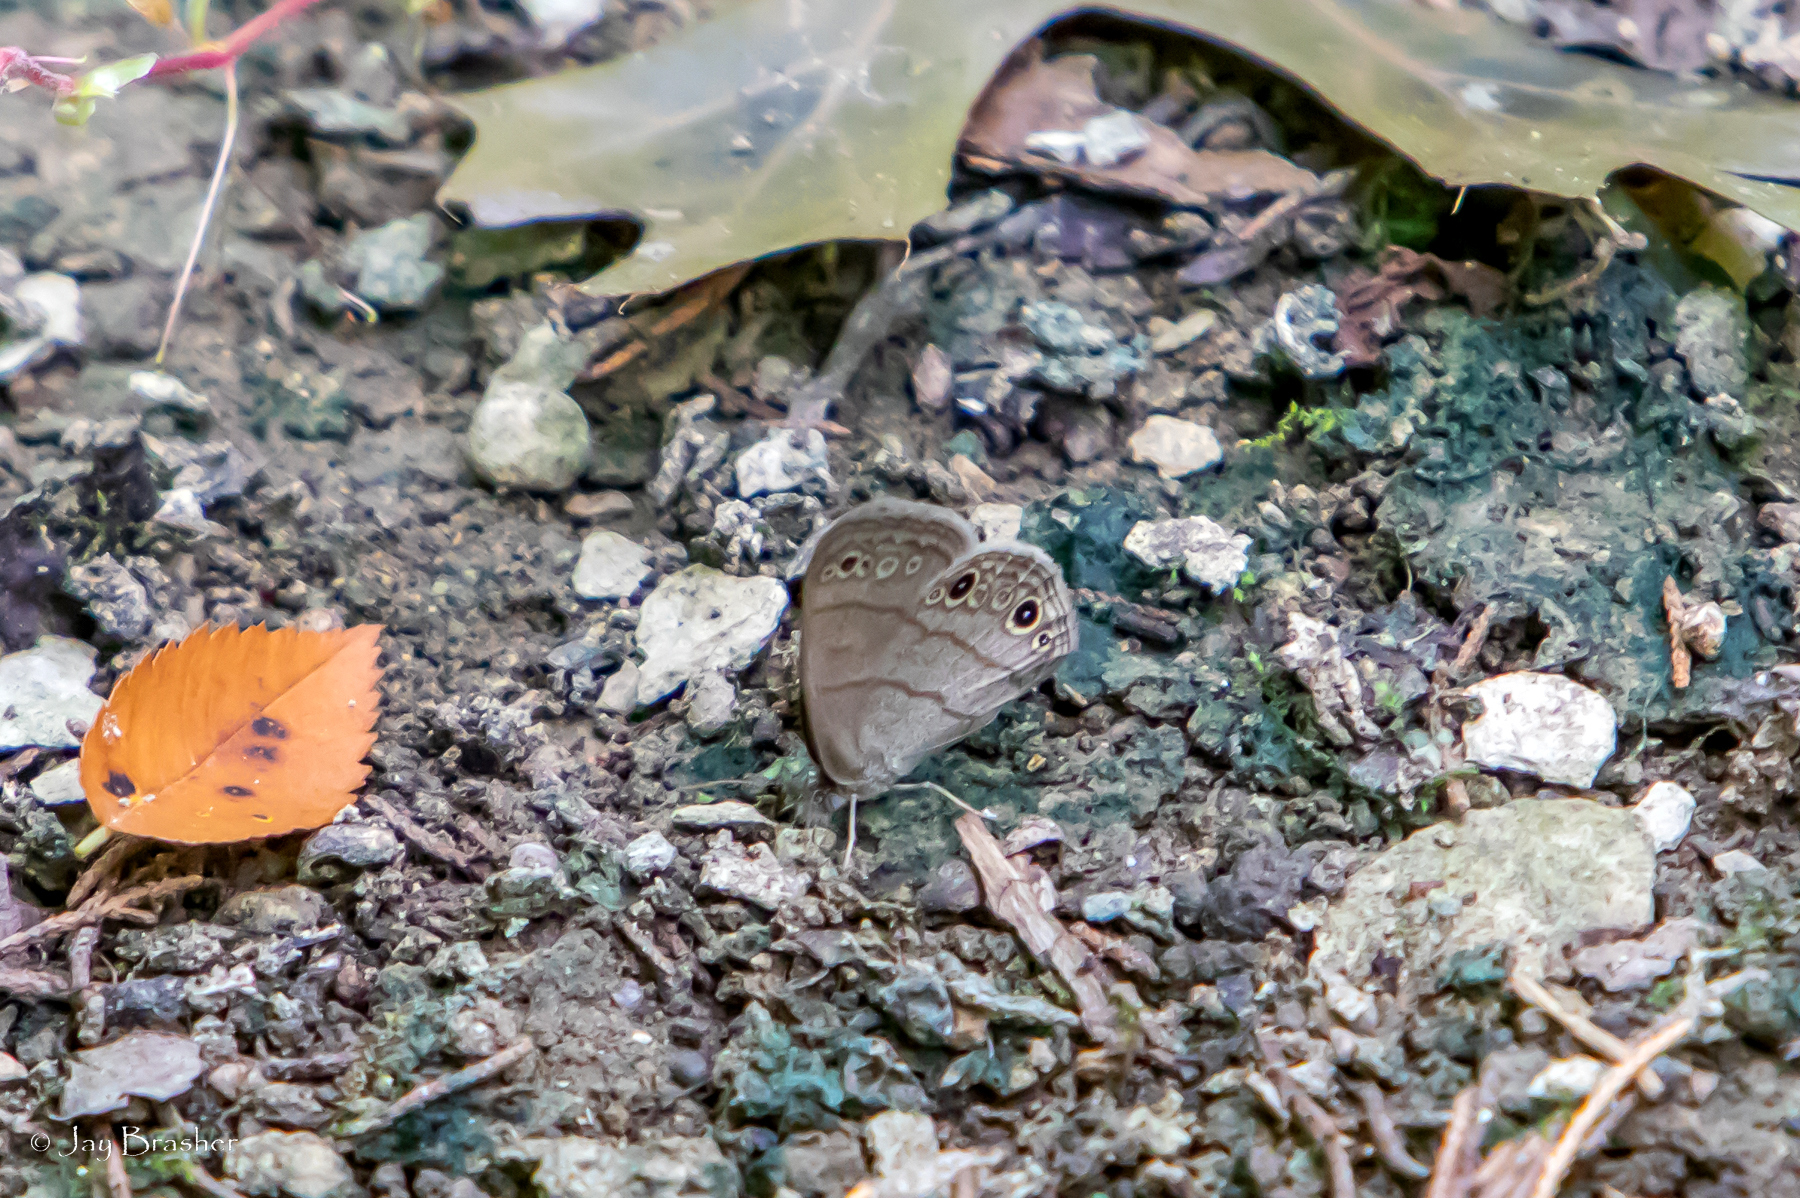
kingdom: Animalia
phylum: Arthropoda
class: Insecta
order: Lepidoptera
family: Nymphalidae
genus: Hermeuptychia
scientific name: Hermeuptychia hermes
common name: Hermes satyr
